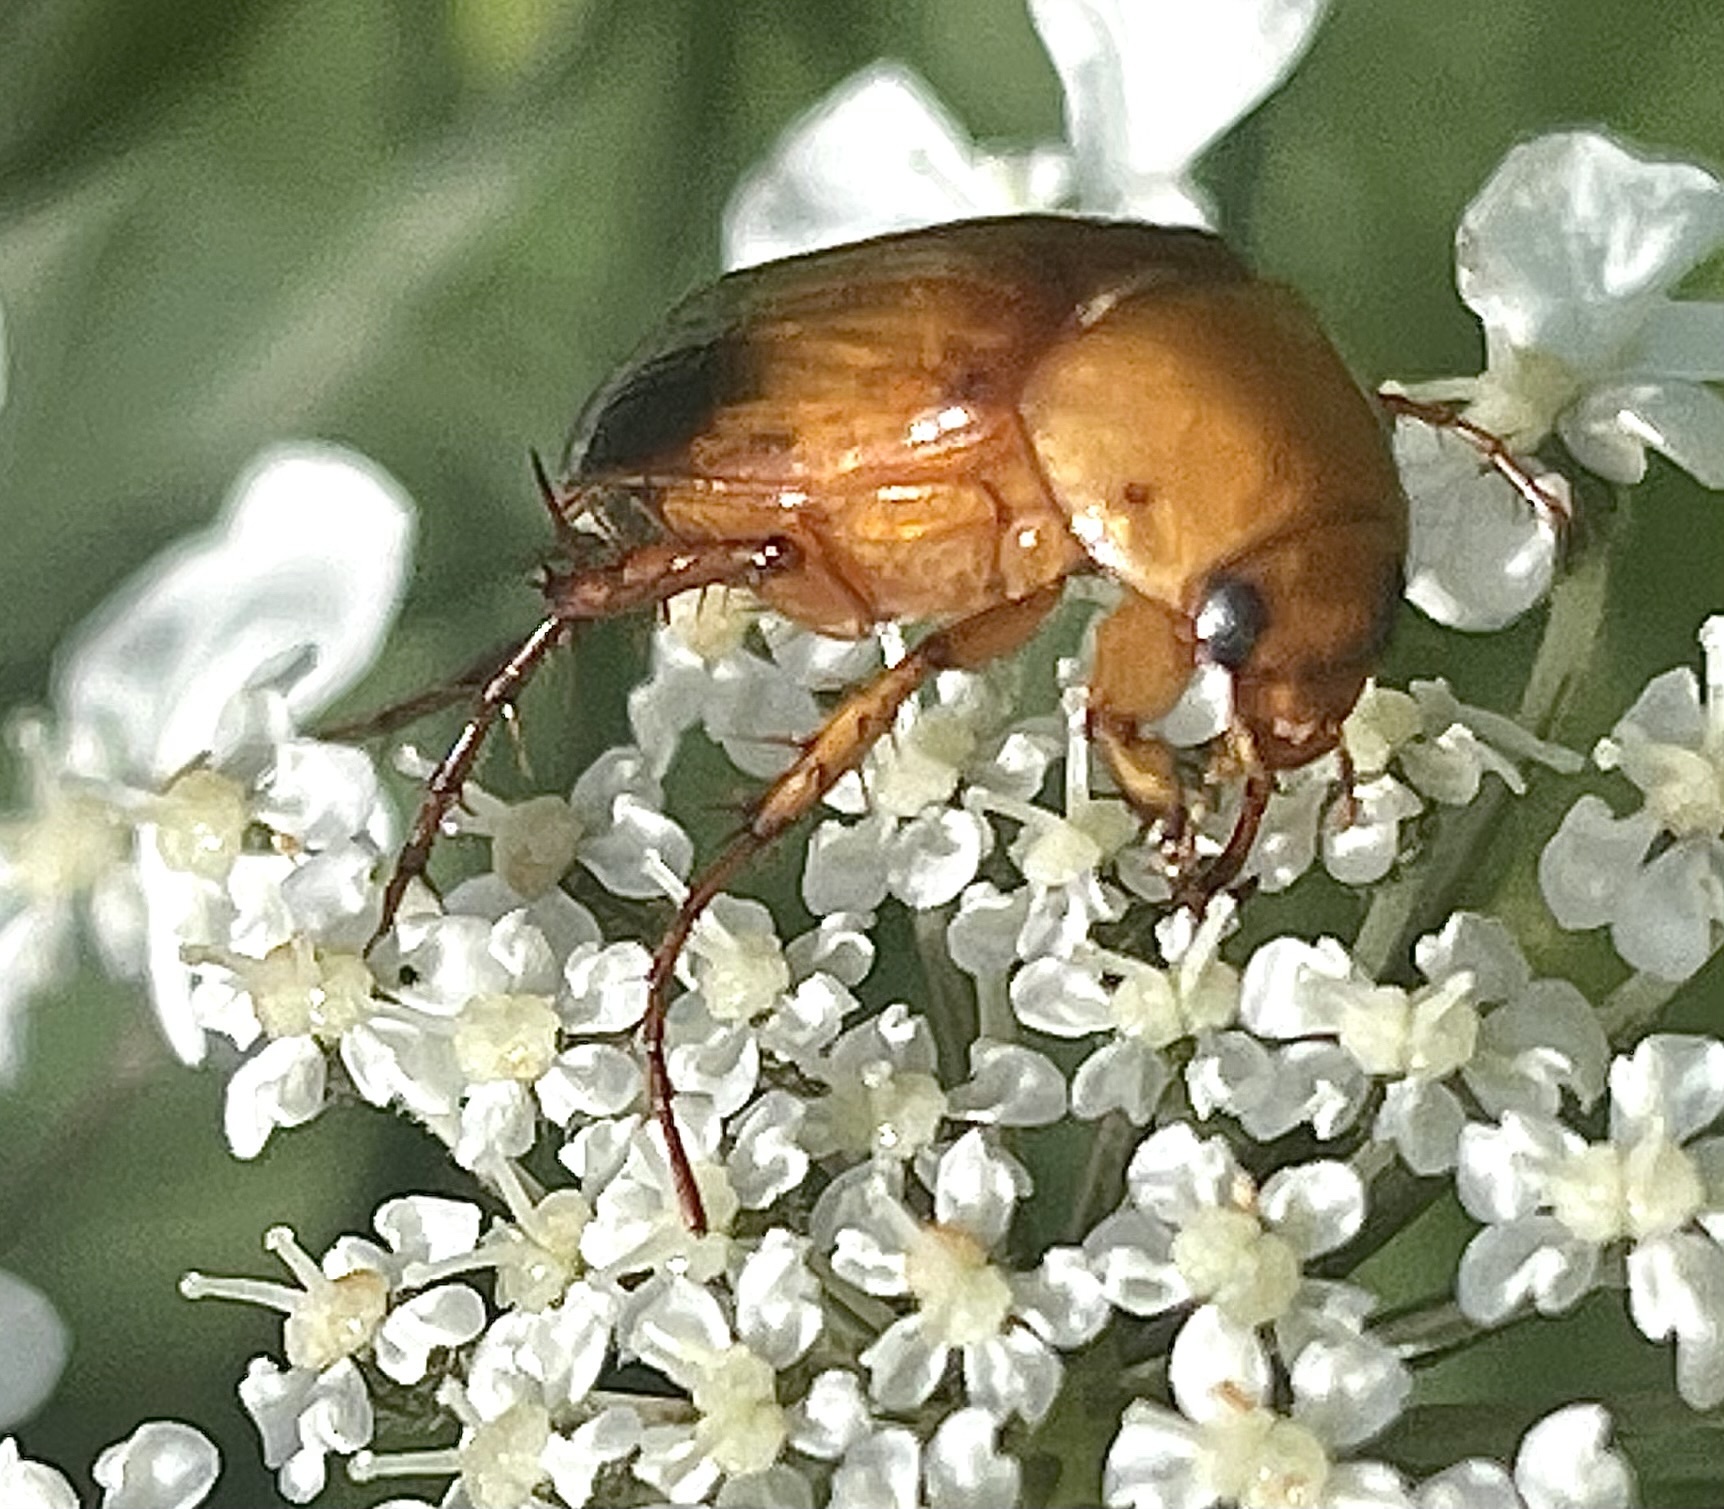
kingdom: Animalia
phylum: Arthropoda
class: Insecta
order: Coleoptera
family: Scarabaeidae
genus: Phyllotocus
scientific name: Phyllotocus macleayi
